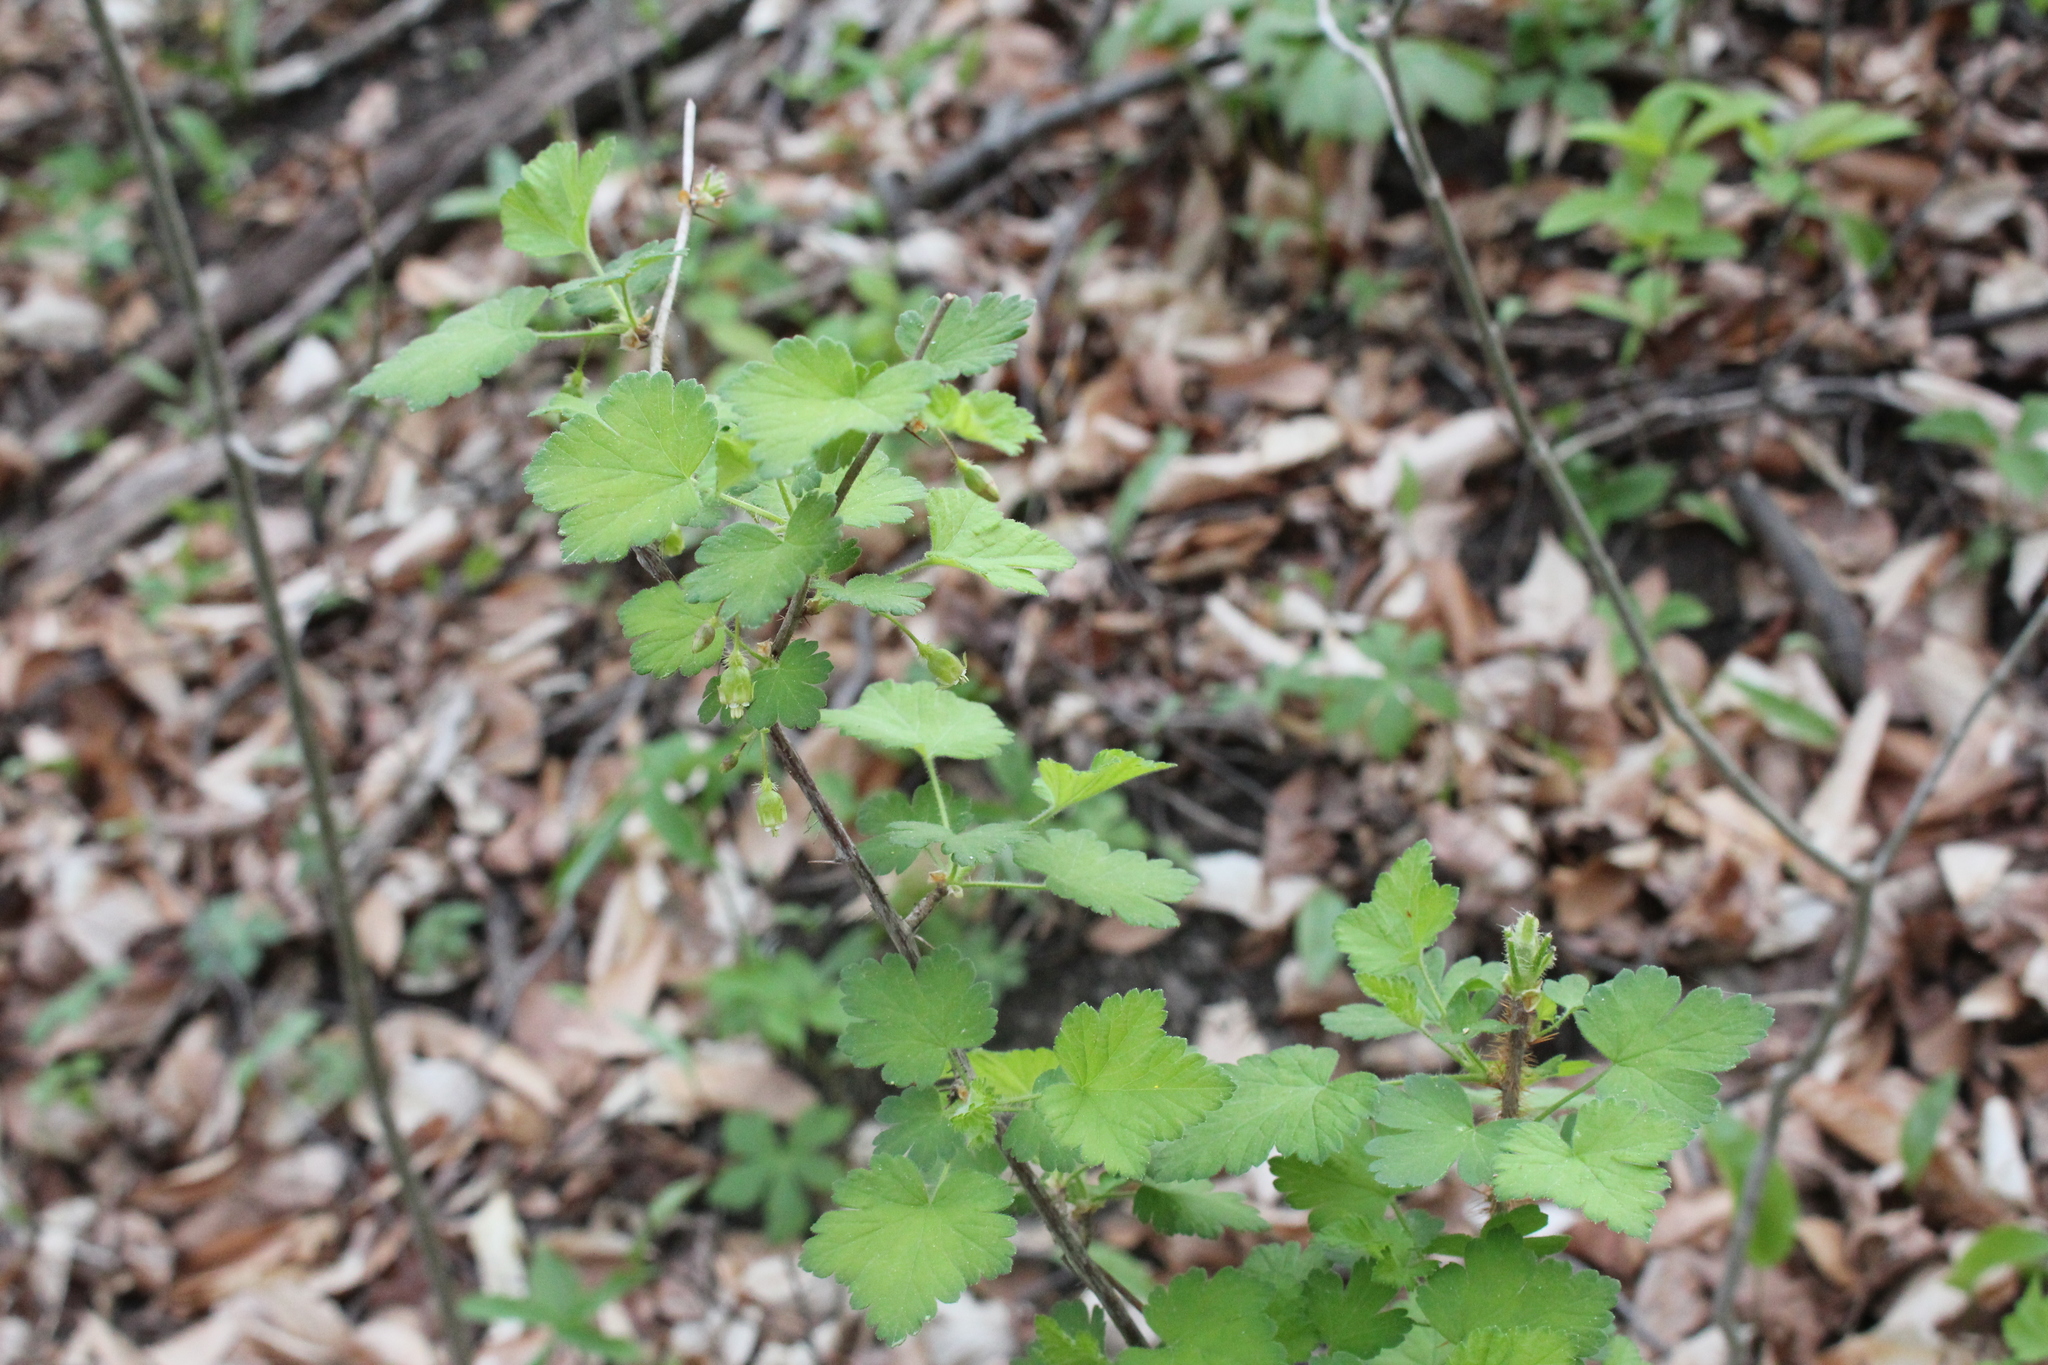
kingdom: Plantae
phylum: Tracheophyta
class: Magnoliopsida
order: Saxifragales
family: Grossulariaceae
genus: Ribes
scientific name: Ribes cynosbati
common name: American gooseberry
